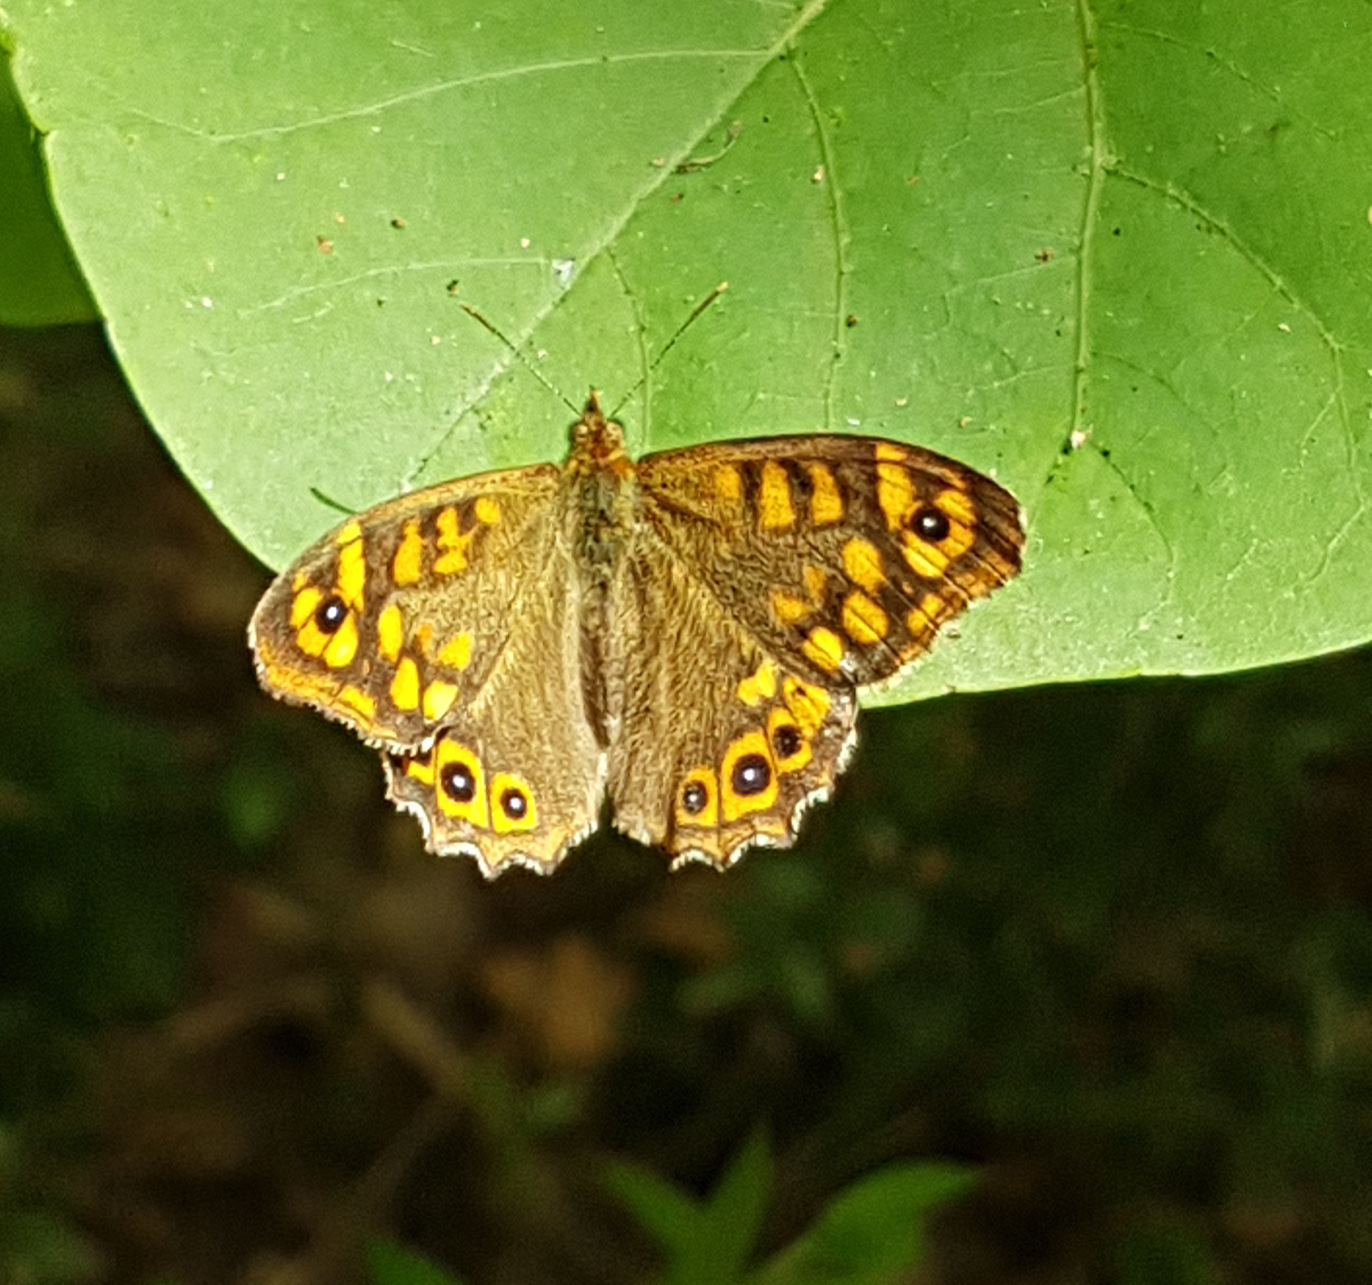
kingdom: Animalia
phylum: Arthropoda
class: Insecta
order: Lepidoptera
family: Nymphalidae
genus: Pararge
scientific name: Pararge aegeria
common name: Speckled wood
